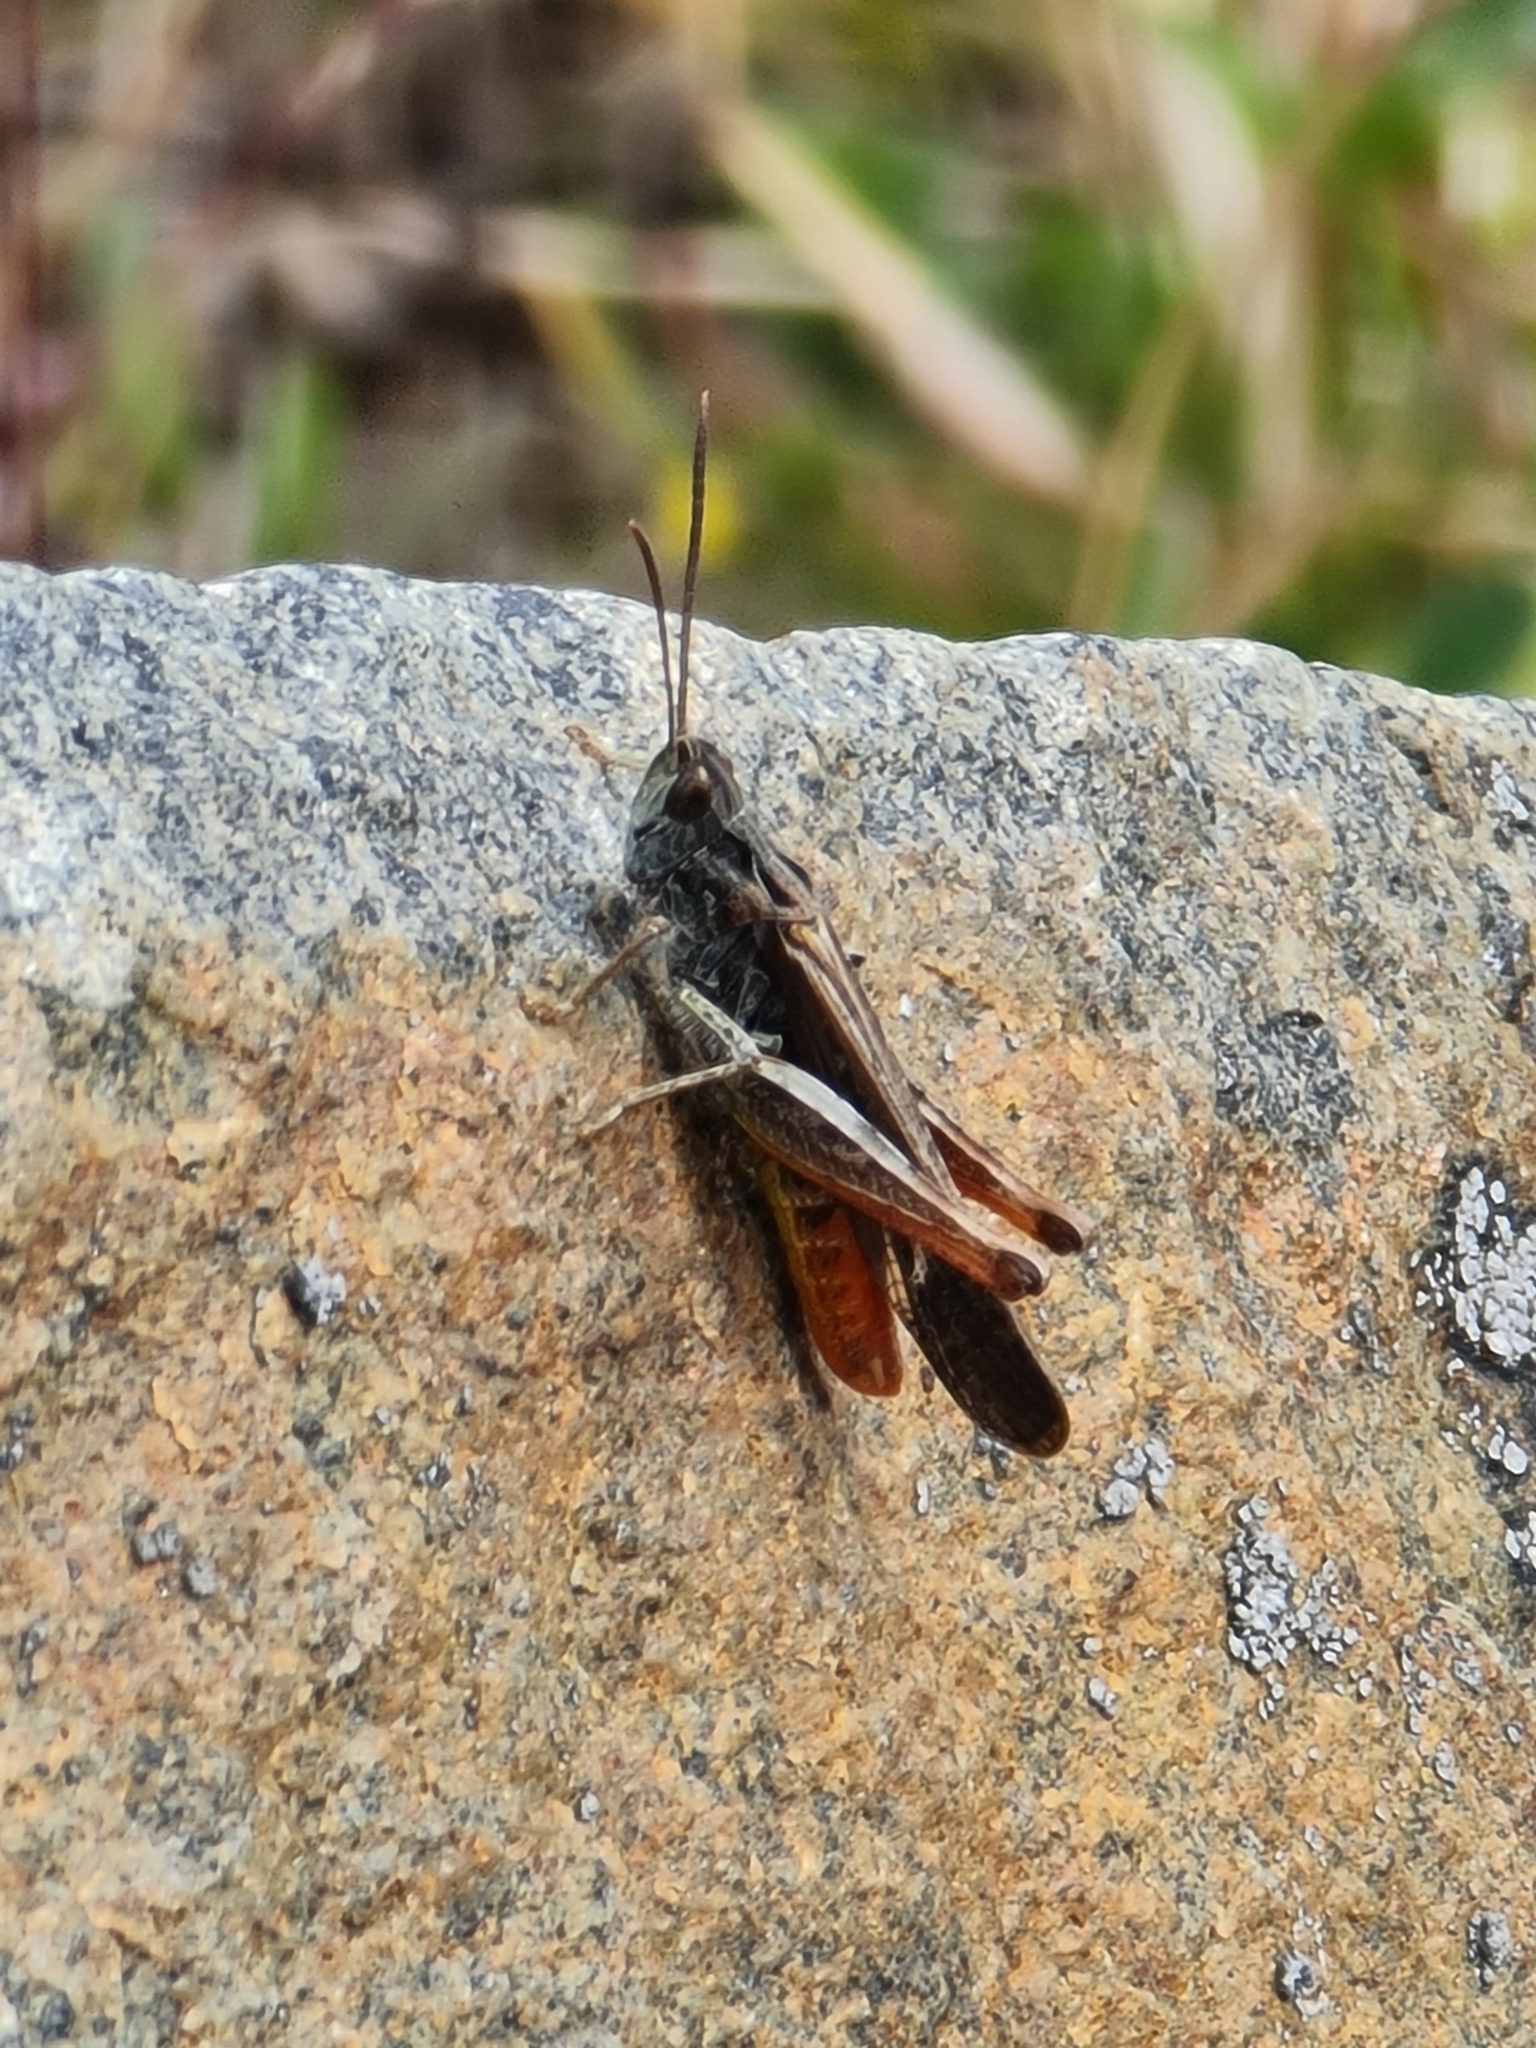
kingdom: Animalia
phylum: Arthropoda
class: Insecta
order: Orthoptera
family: Acrididae
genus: Chorthippus
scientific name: Chorthippus brunneus
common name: Field grasshopper
